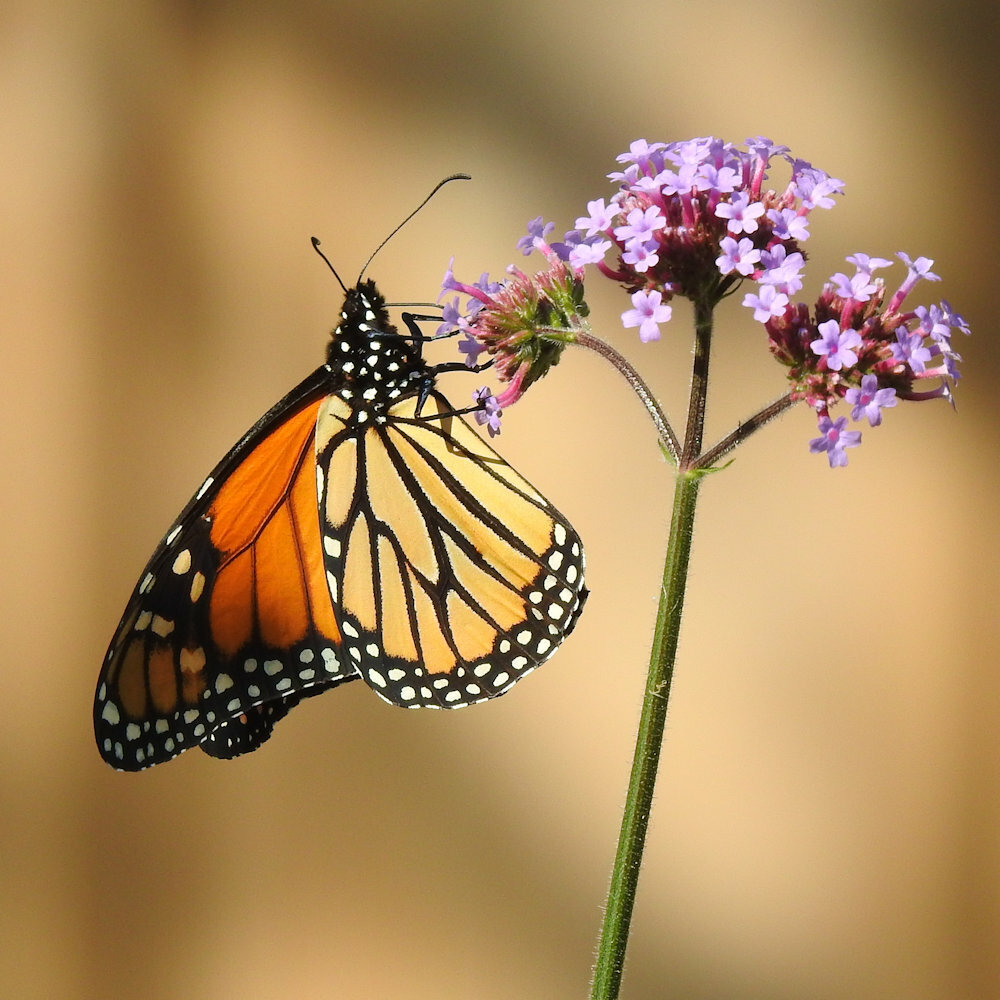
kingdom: Animalia
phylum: Arthropoda
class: Insecta
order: Lepidoptera
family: Nymphalidae
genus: Danaus
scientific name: Danaus plexippus
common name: Monarch
